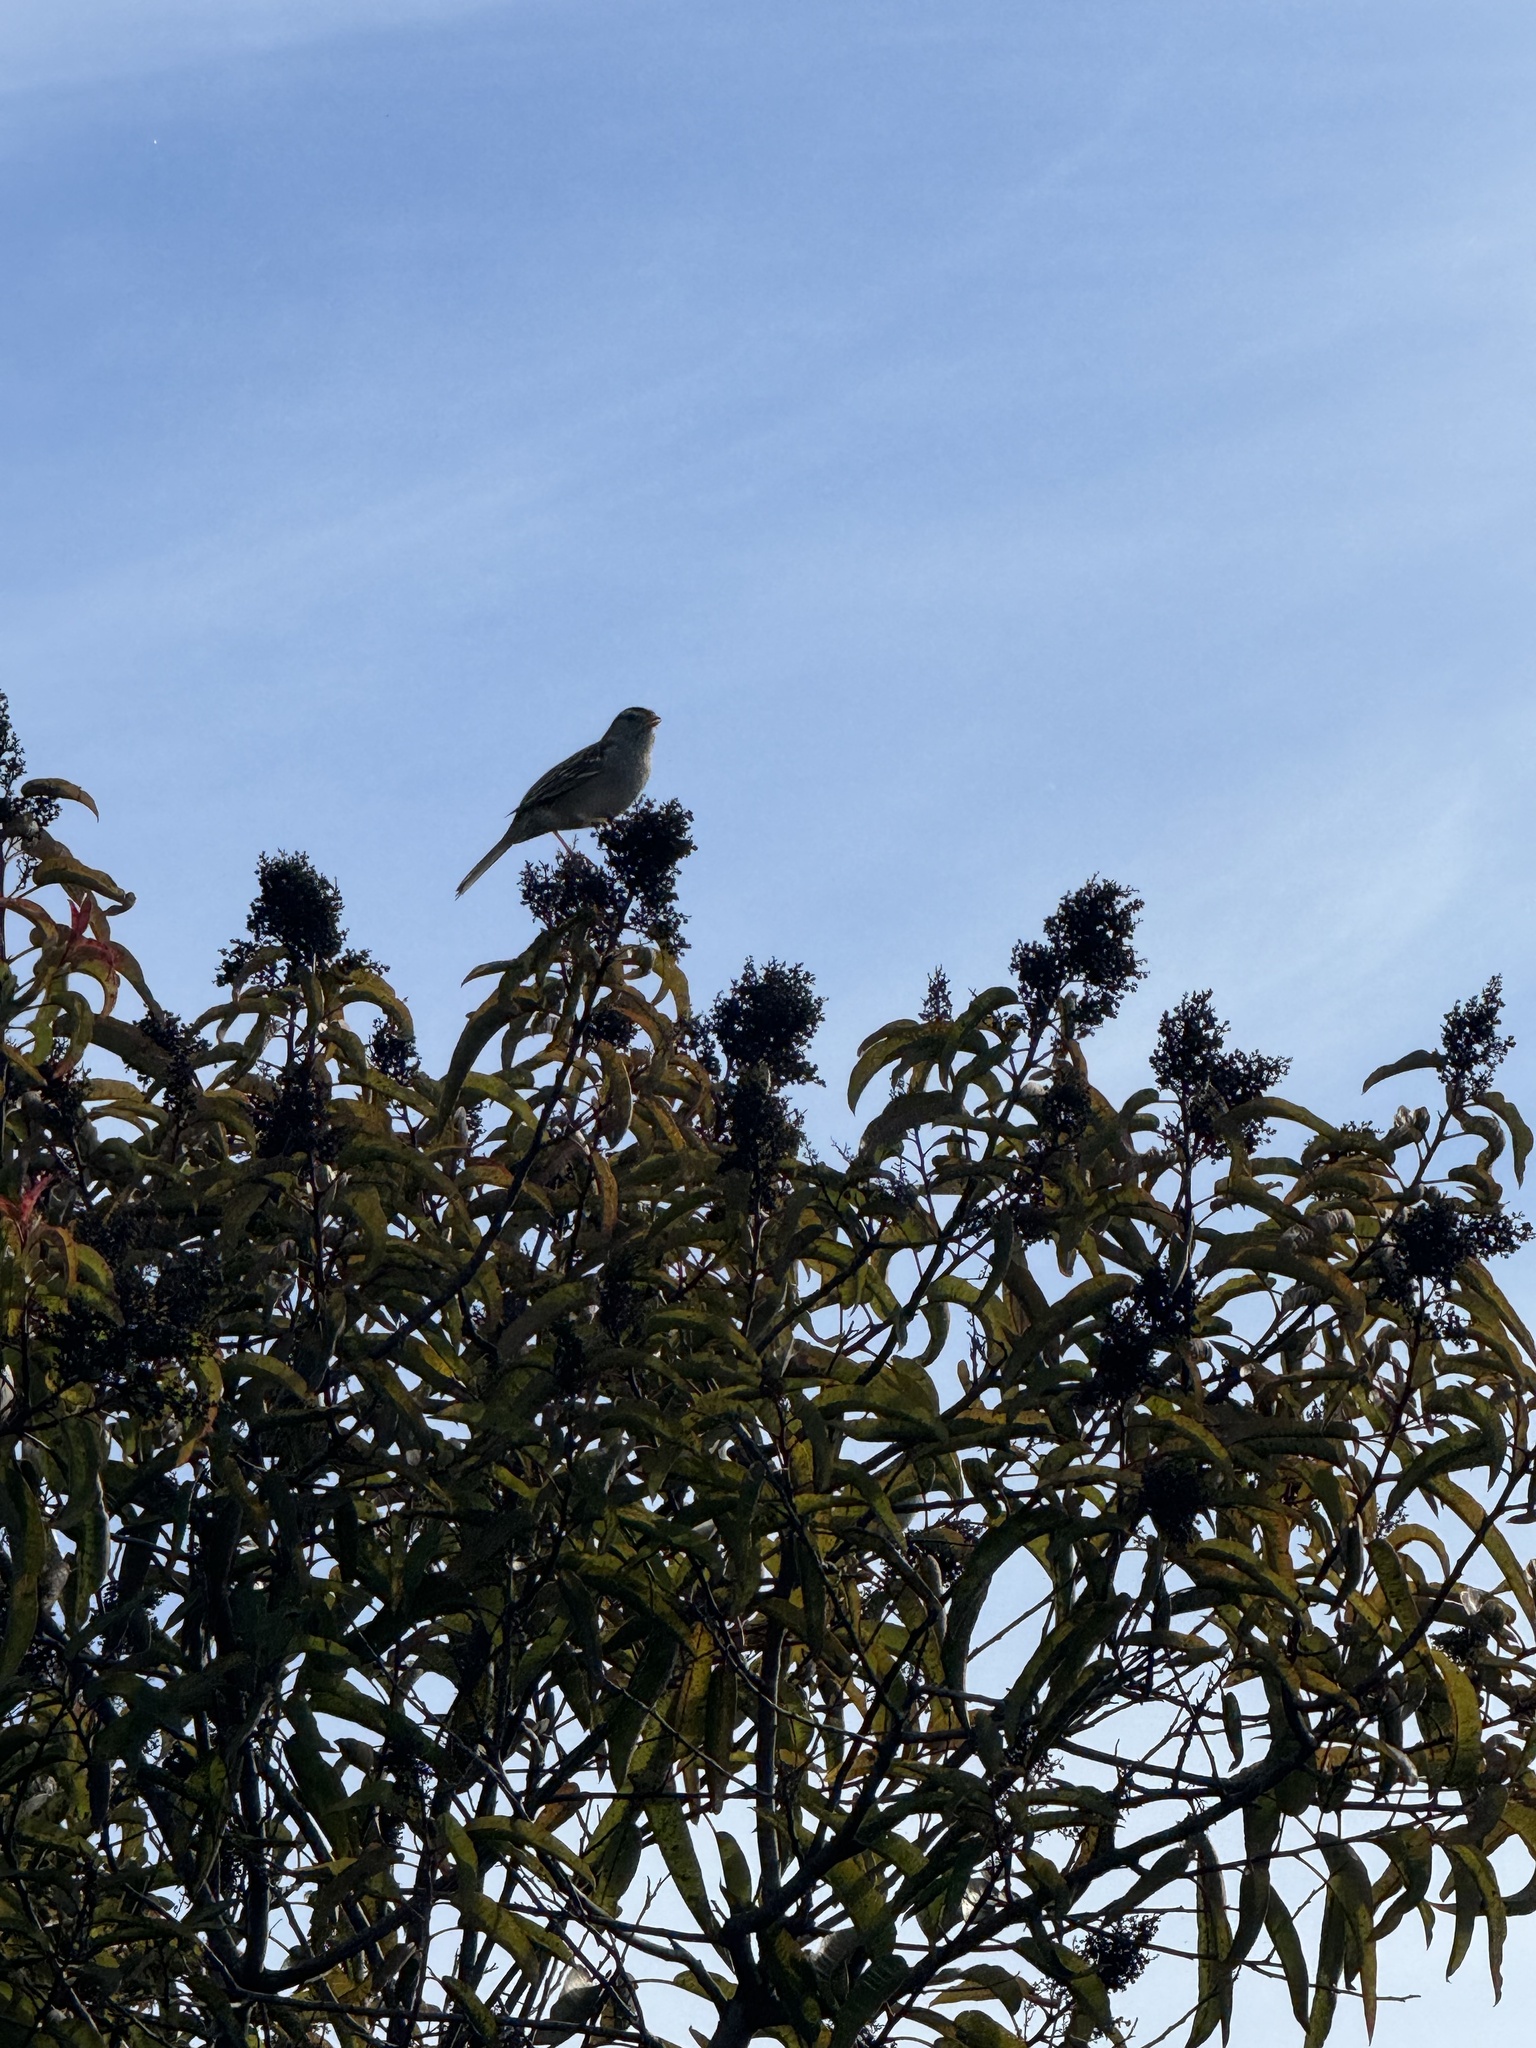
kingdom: Animalia
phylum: Chordata
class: Aves
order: Passeriformes
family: Passerellidae
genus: Zonotrichia
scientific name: Zonotrichia leucophrys
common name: White-crowned sparrow
